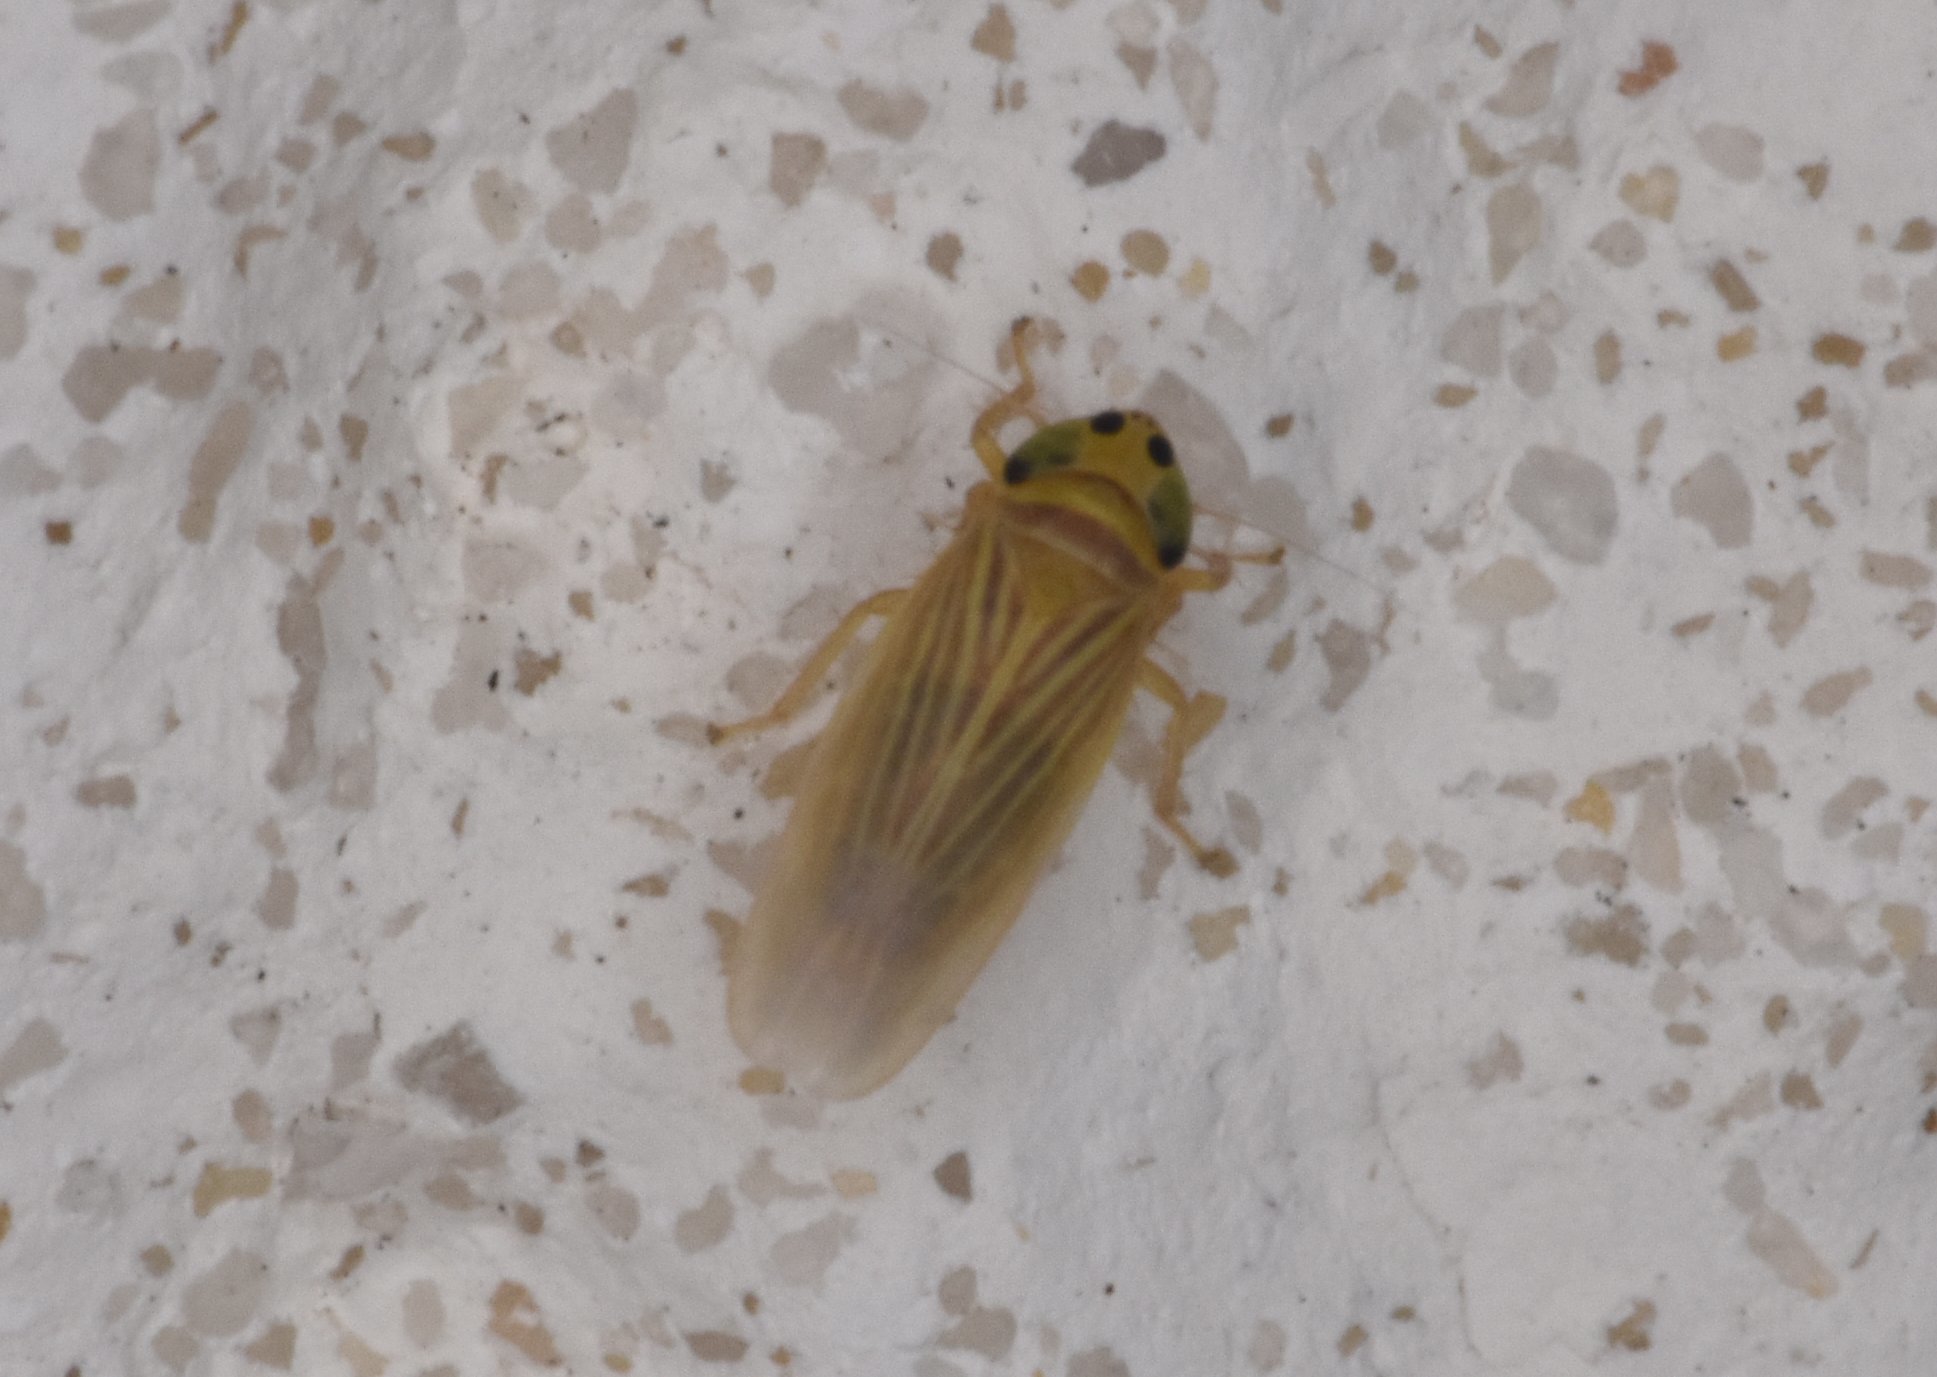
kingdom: Animalia
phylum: Arthropoda
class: Insecta
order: Hemiptera
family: Cicadellidae
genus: Graminella
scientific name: Graminella villicus
